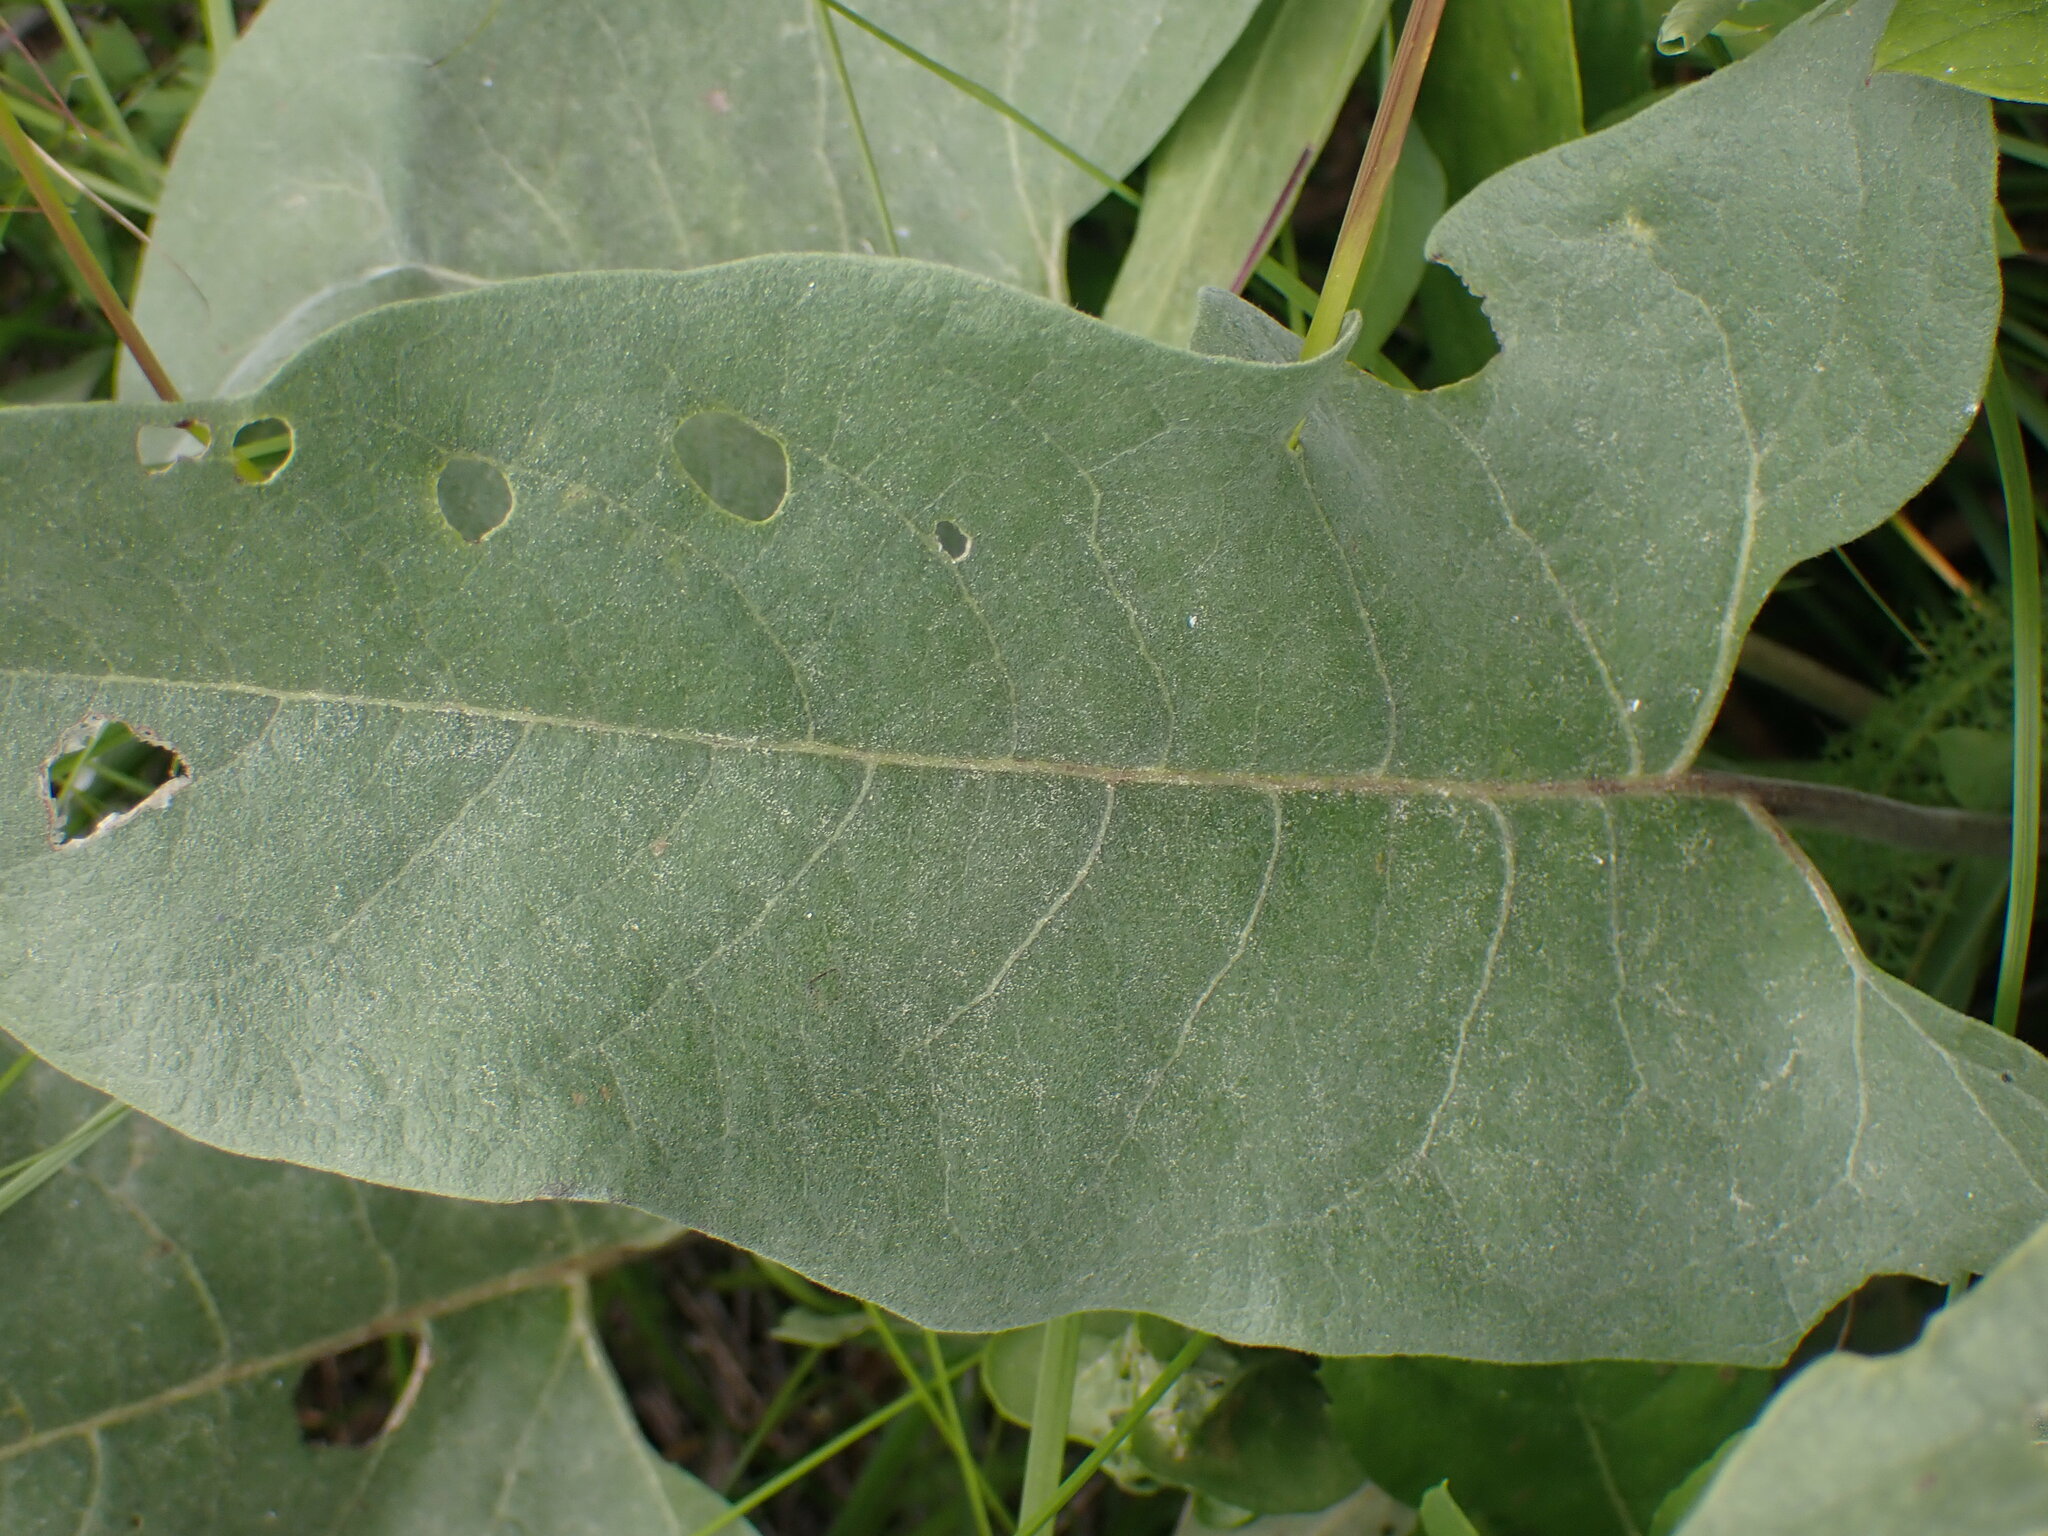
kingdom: Plantae
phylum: Tracheophyta
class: Magnoliopsida
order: Asterales
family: Asteraceae
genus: Wyethia
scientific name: Wyethia sagittata
